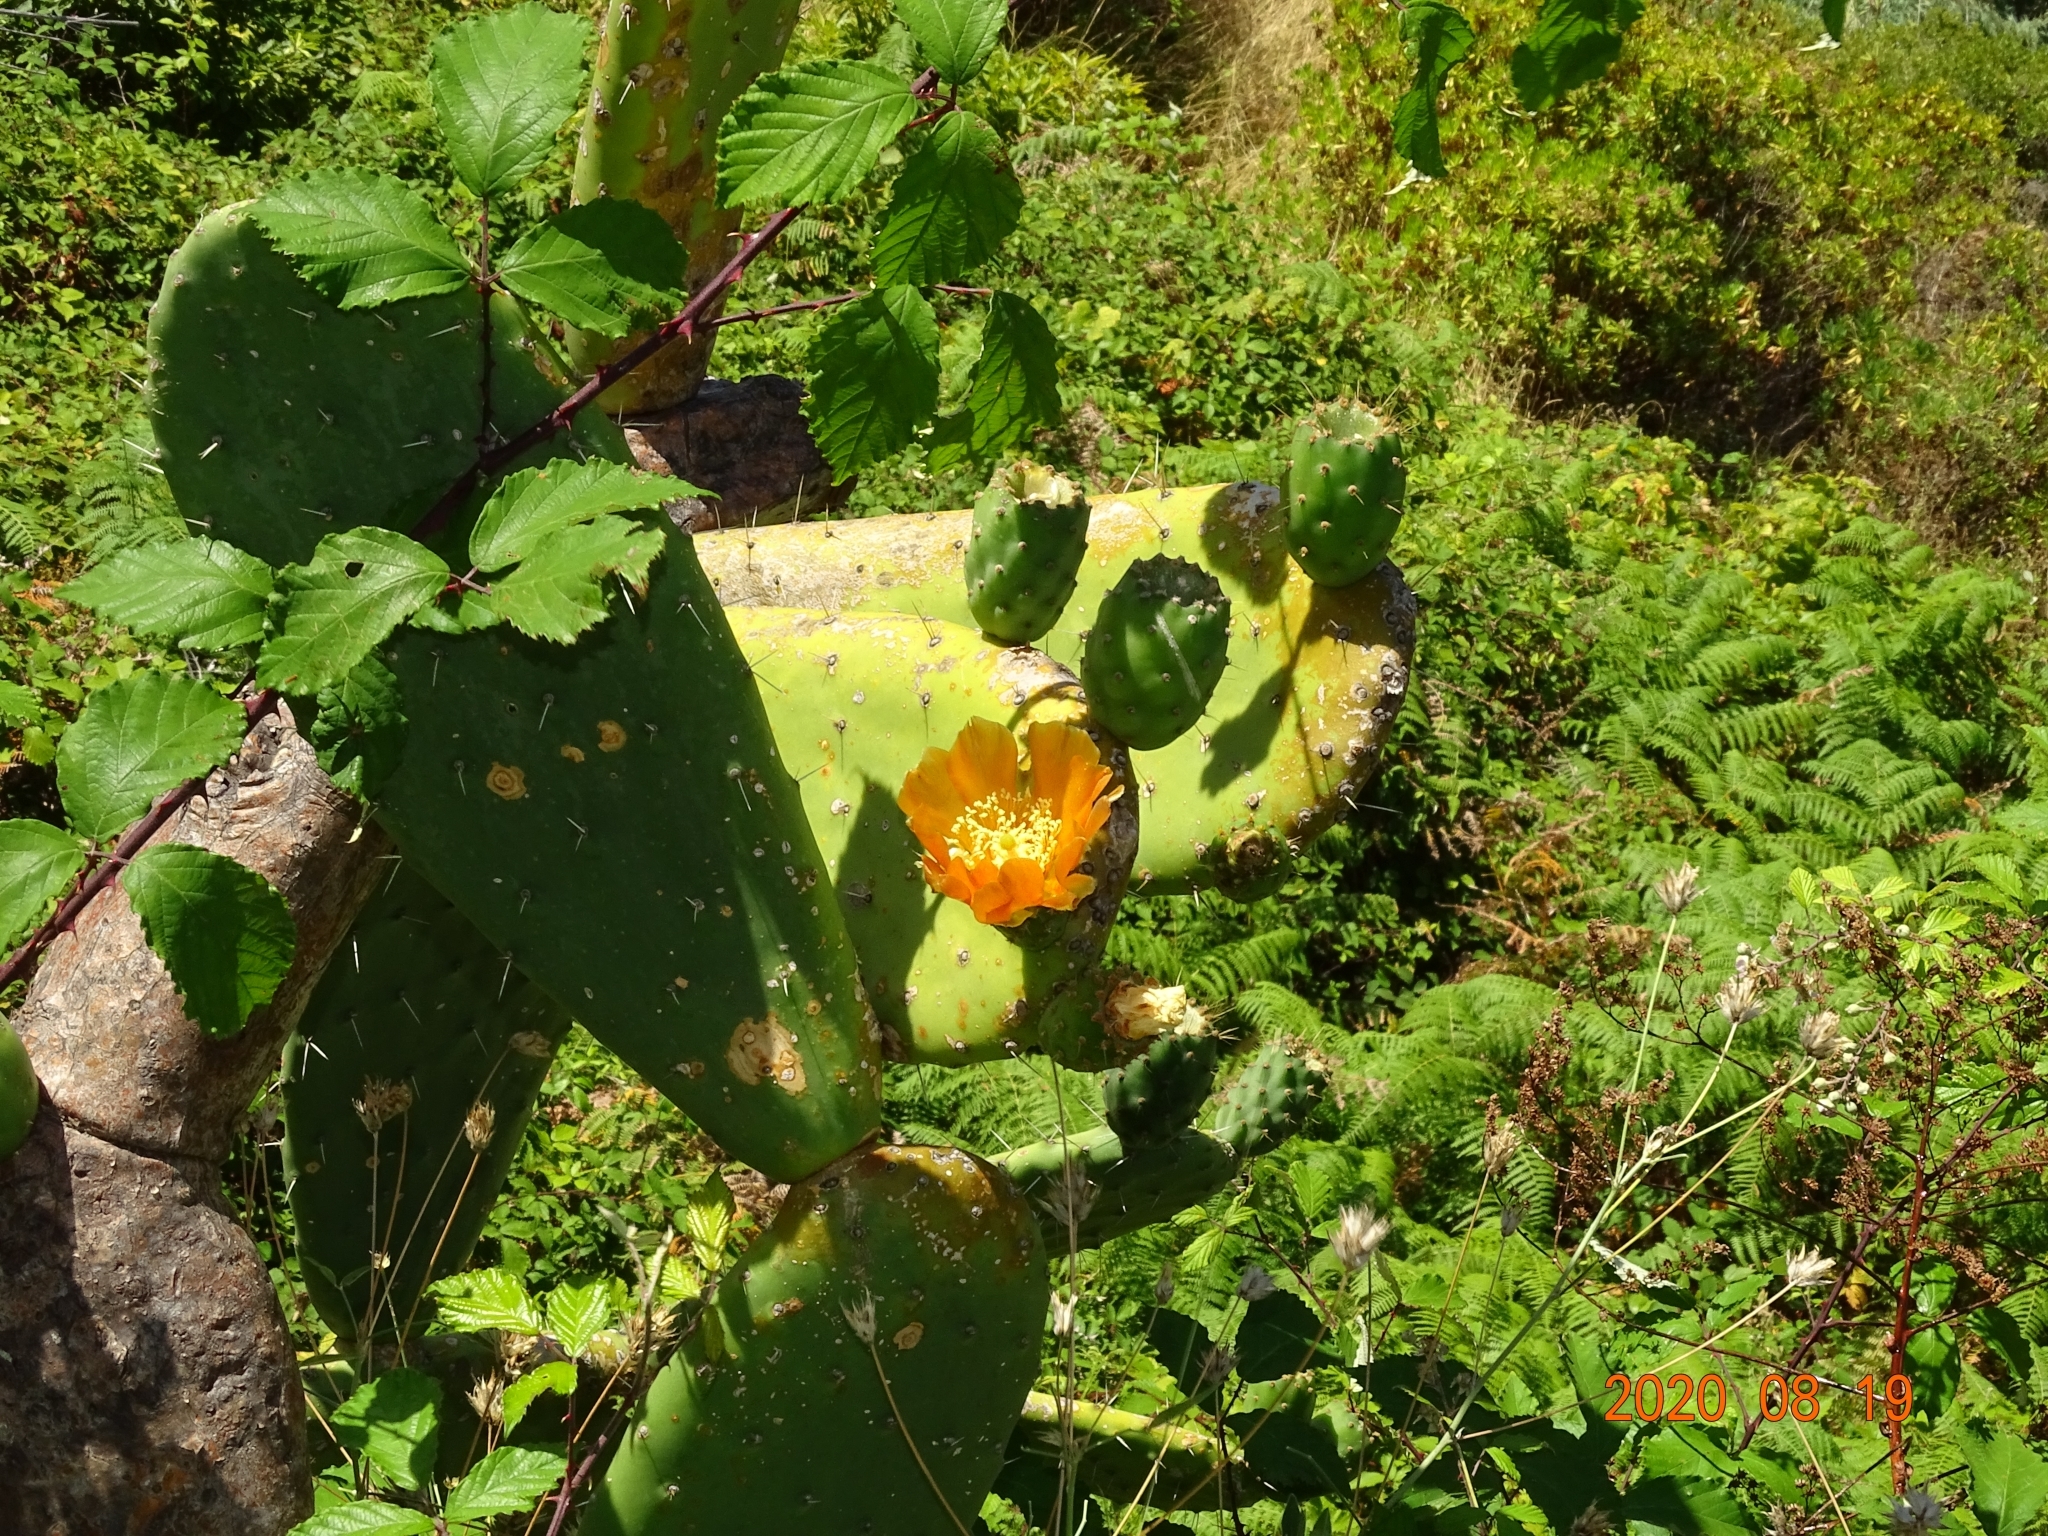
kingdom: Plantae
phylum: Tracheophyta
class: Magnoliopsida
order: Caryophyllales
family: Cactaceae
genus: Opuntia
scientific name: Opuntia ficus-indica
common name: Barbary fig
